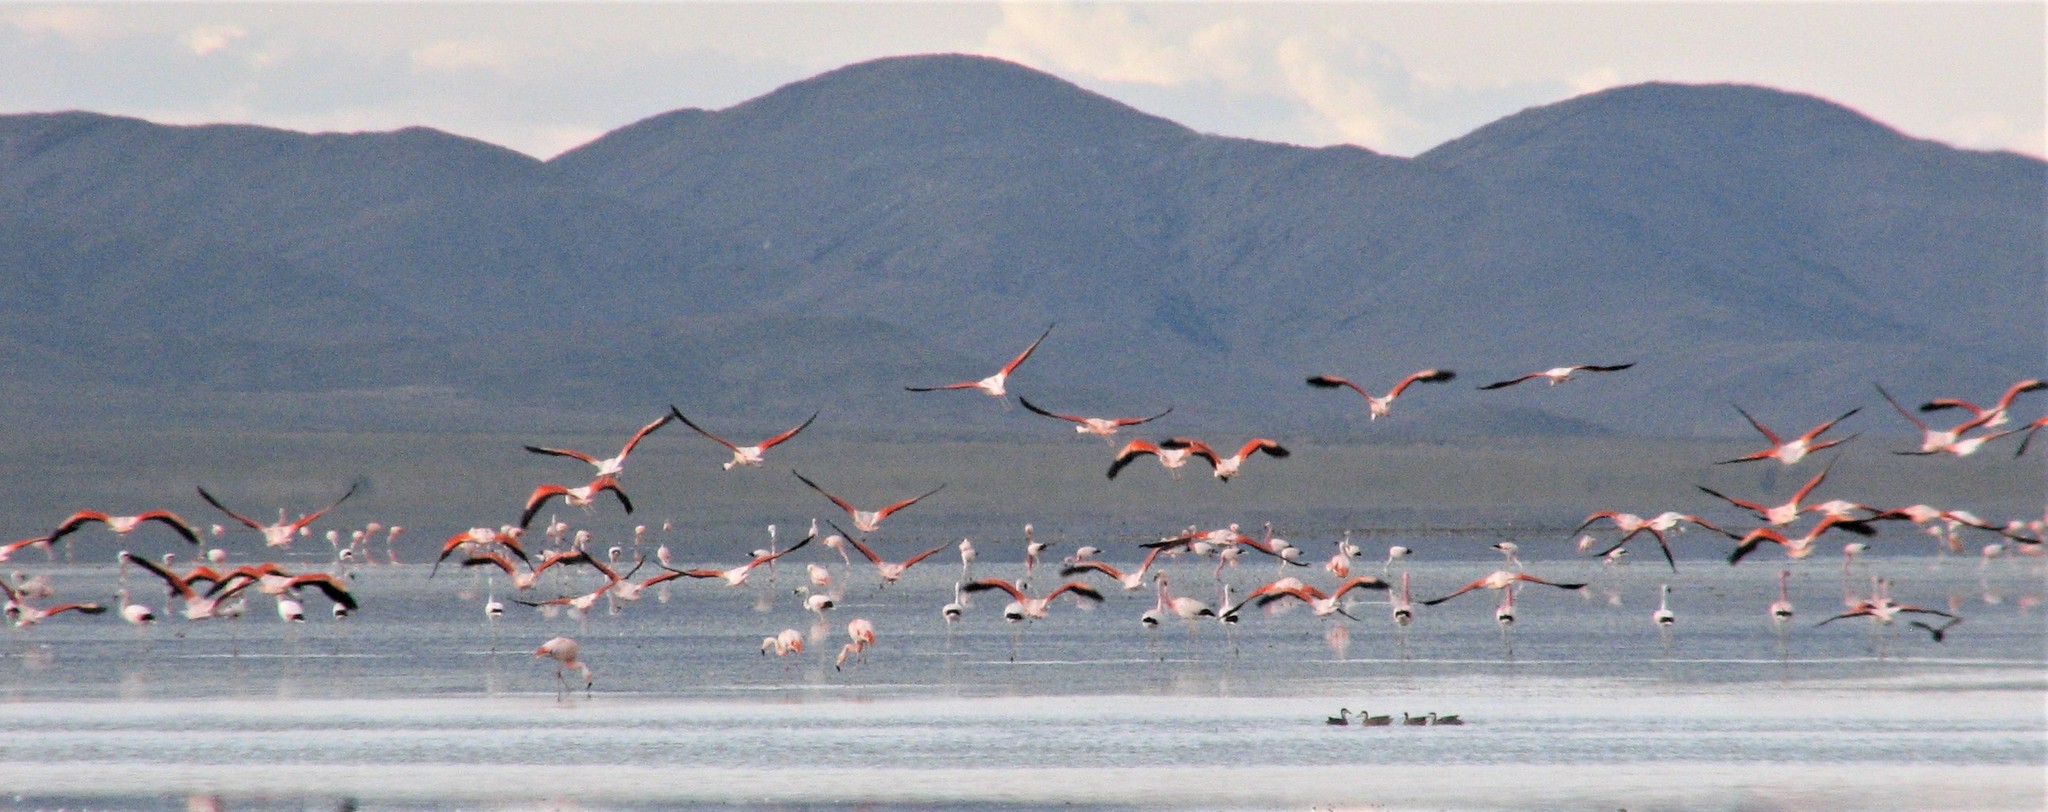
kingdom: Animalia
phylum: Chordata
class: Aves
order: Phoenicopteriformes
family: Phoenicopteridae
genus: Phoenicopterus
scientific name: Phoenicopterus chilensis
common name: Chilean flamingo
